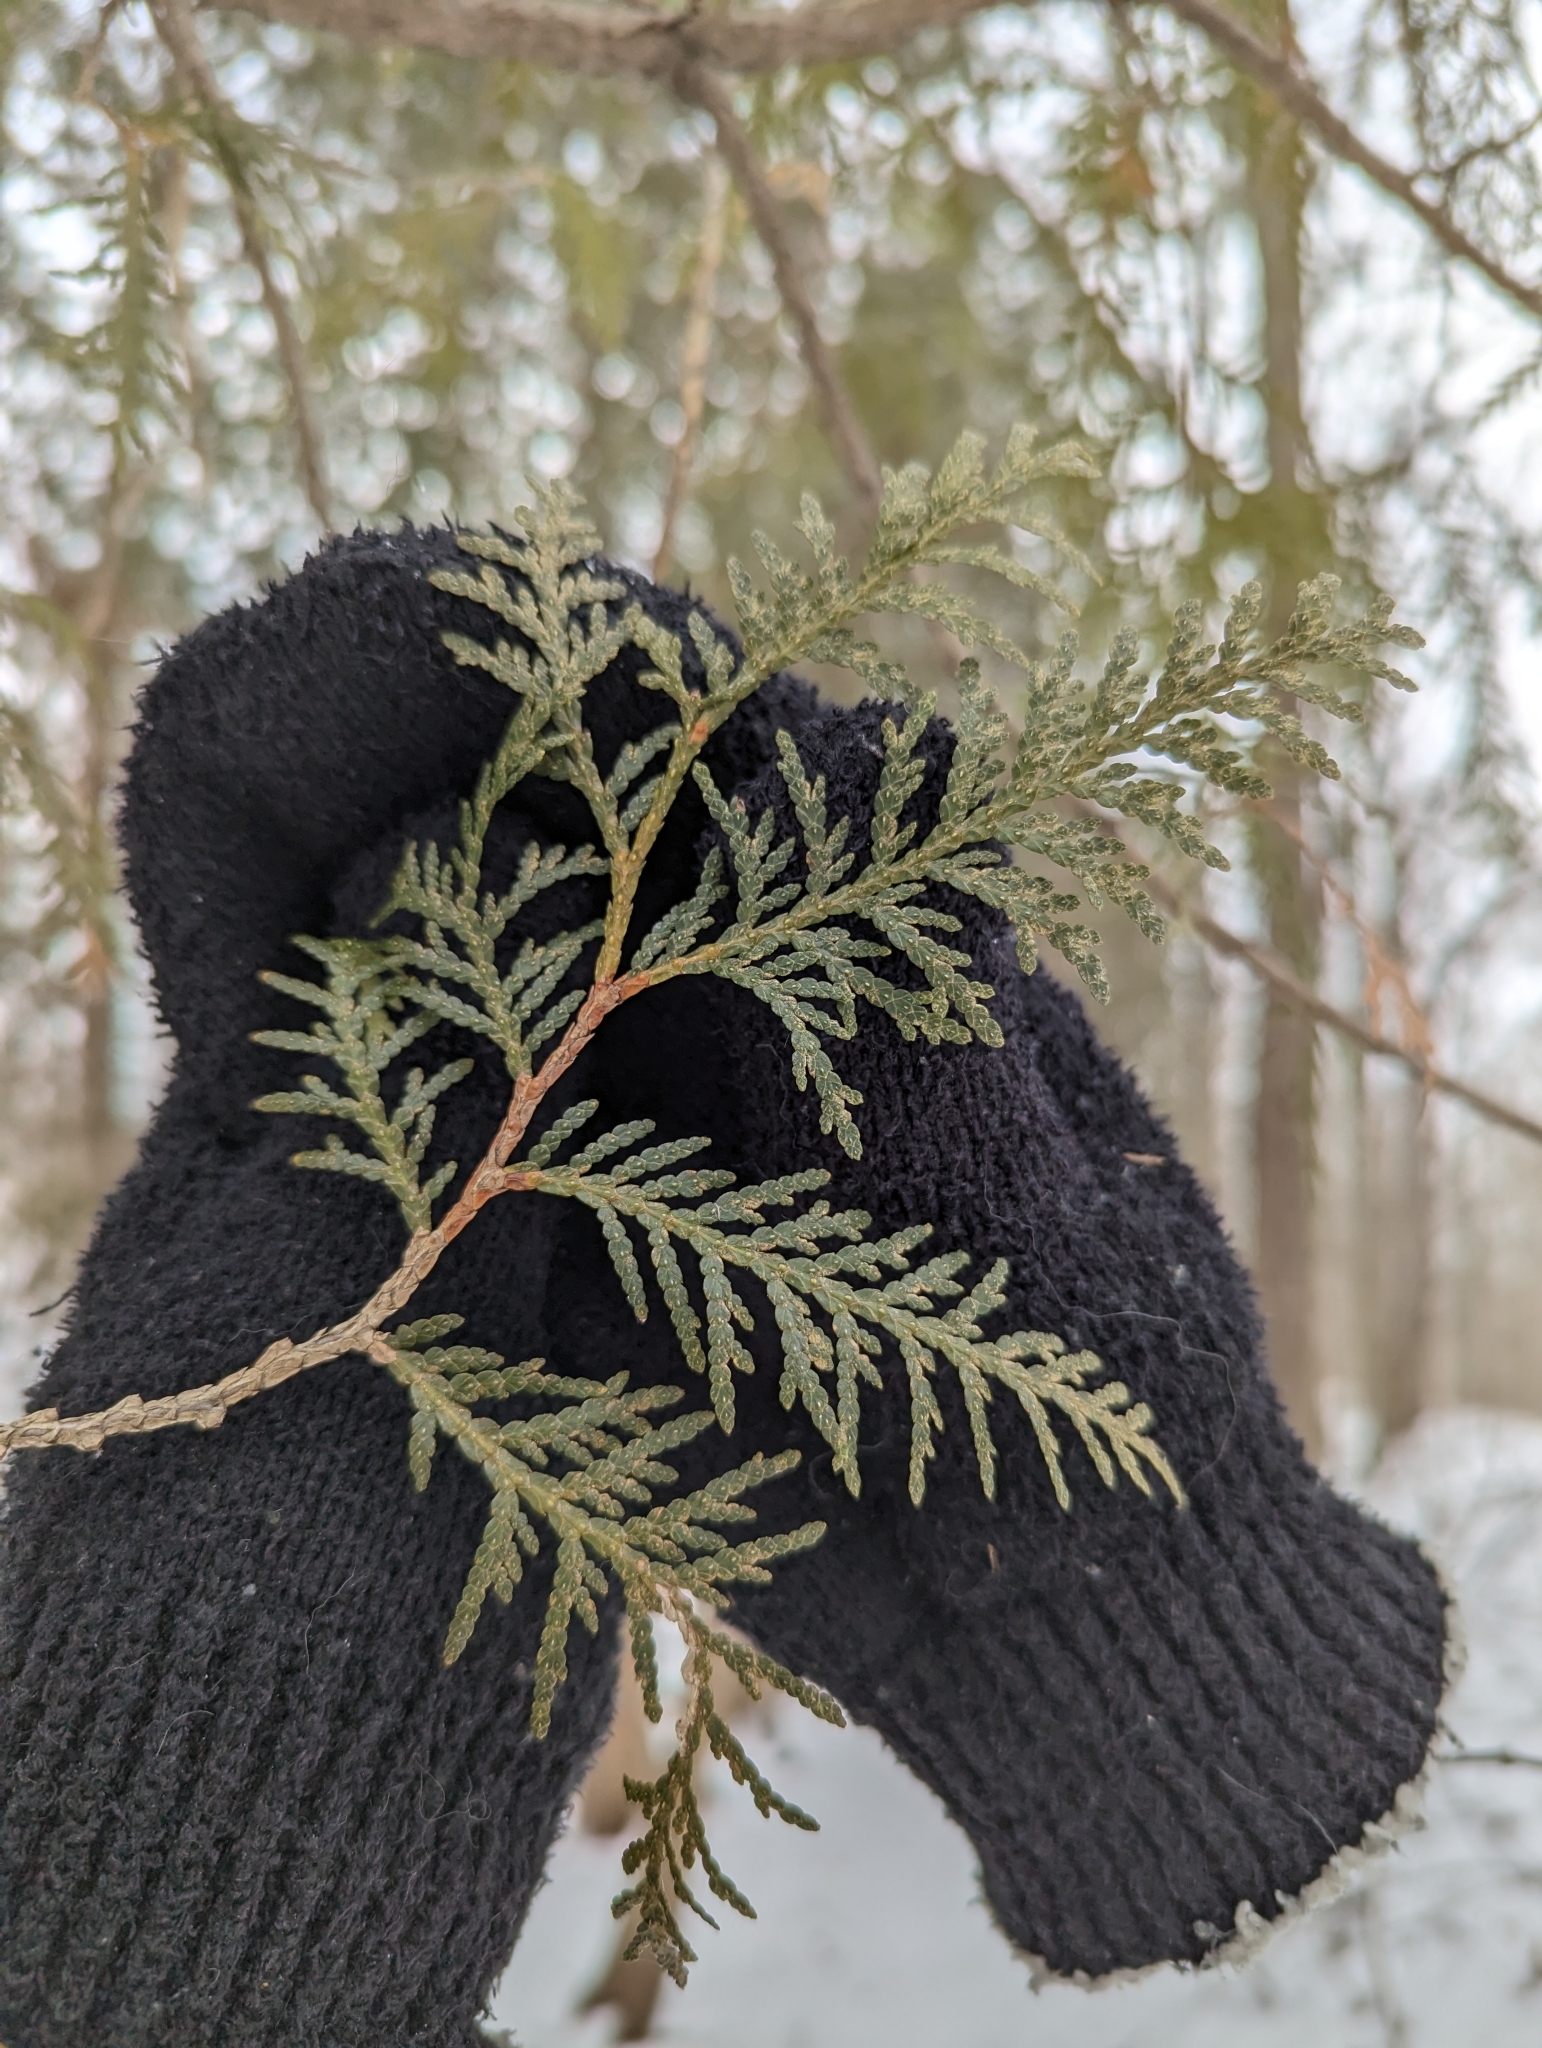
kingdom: Plantae
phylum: Tracheophyta
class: Pinopsida
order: Pinales
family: Cupressaceae
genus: Thuja
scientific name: Thuja occidentalis
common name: Northern white-cedar
